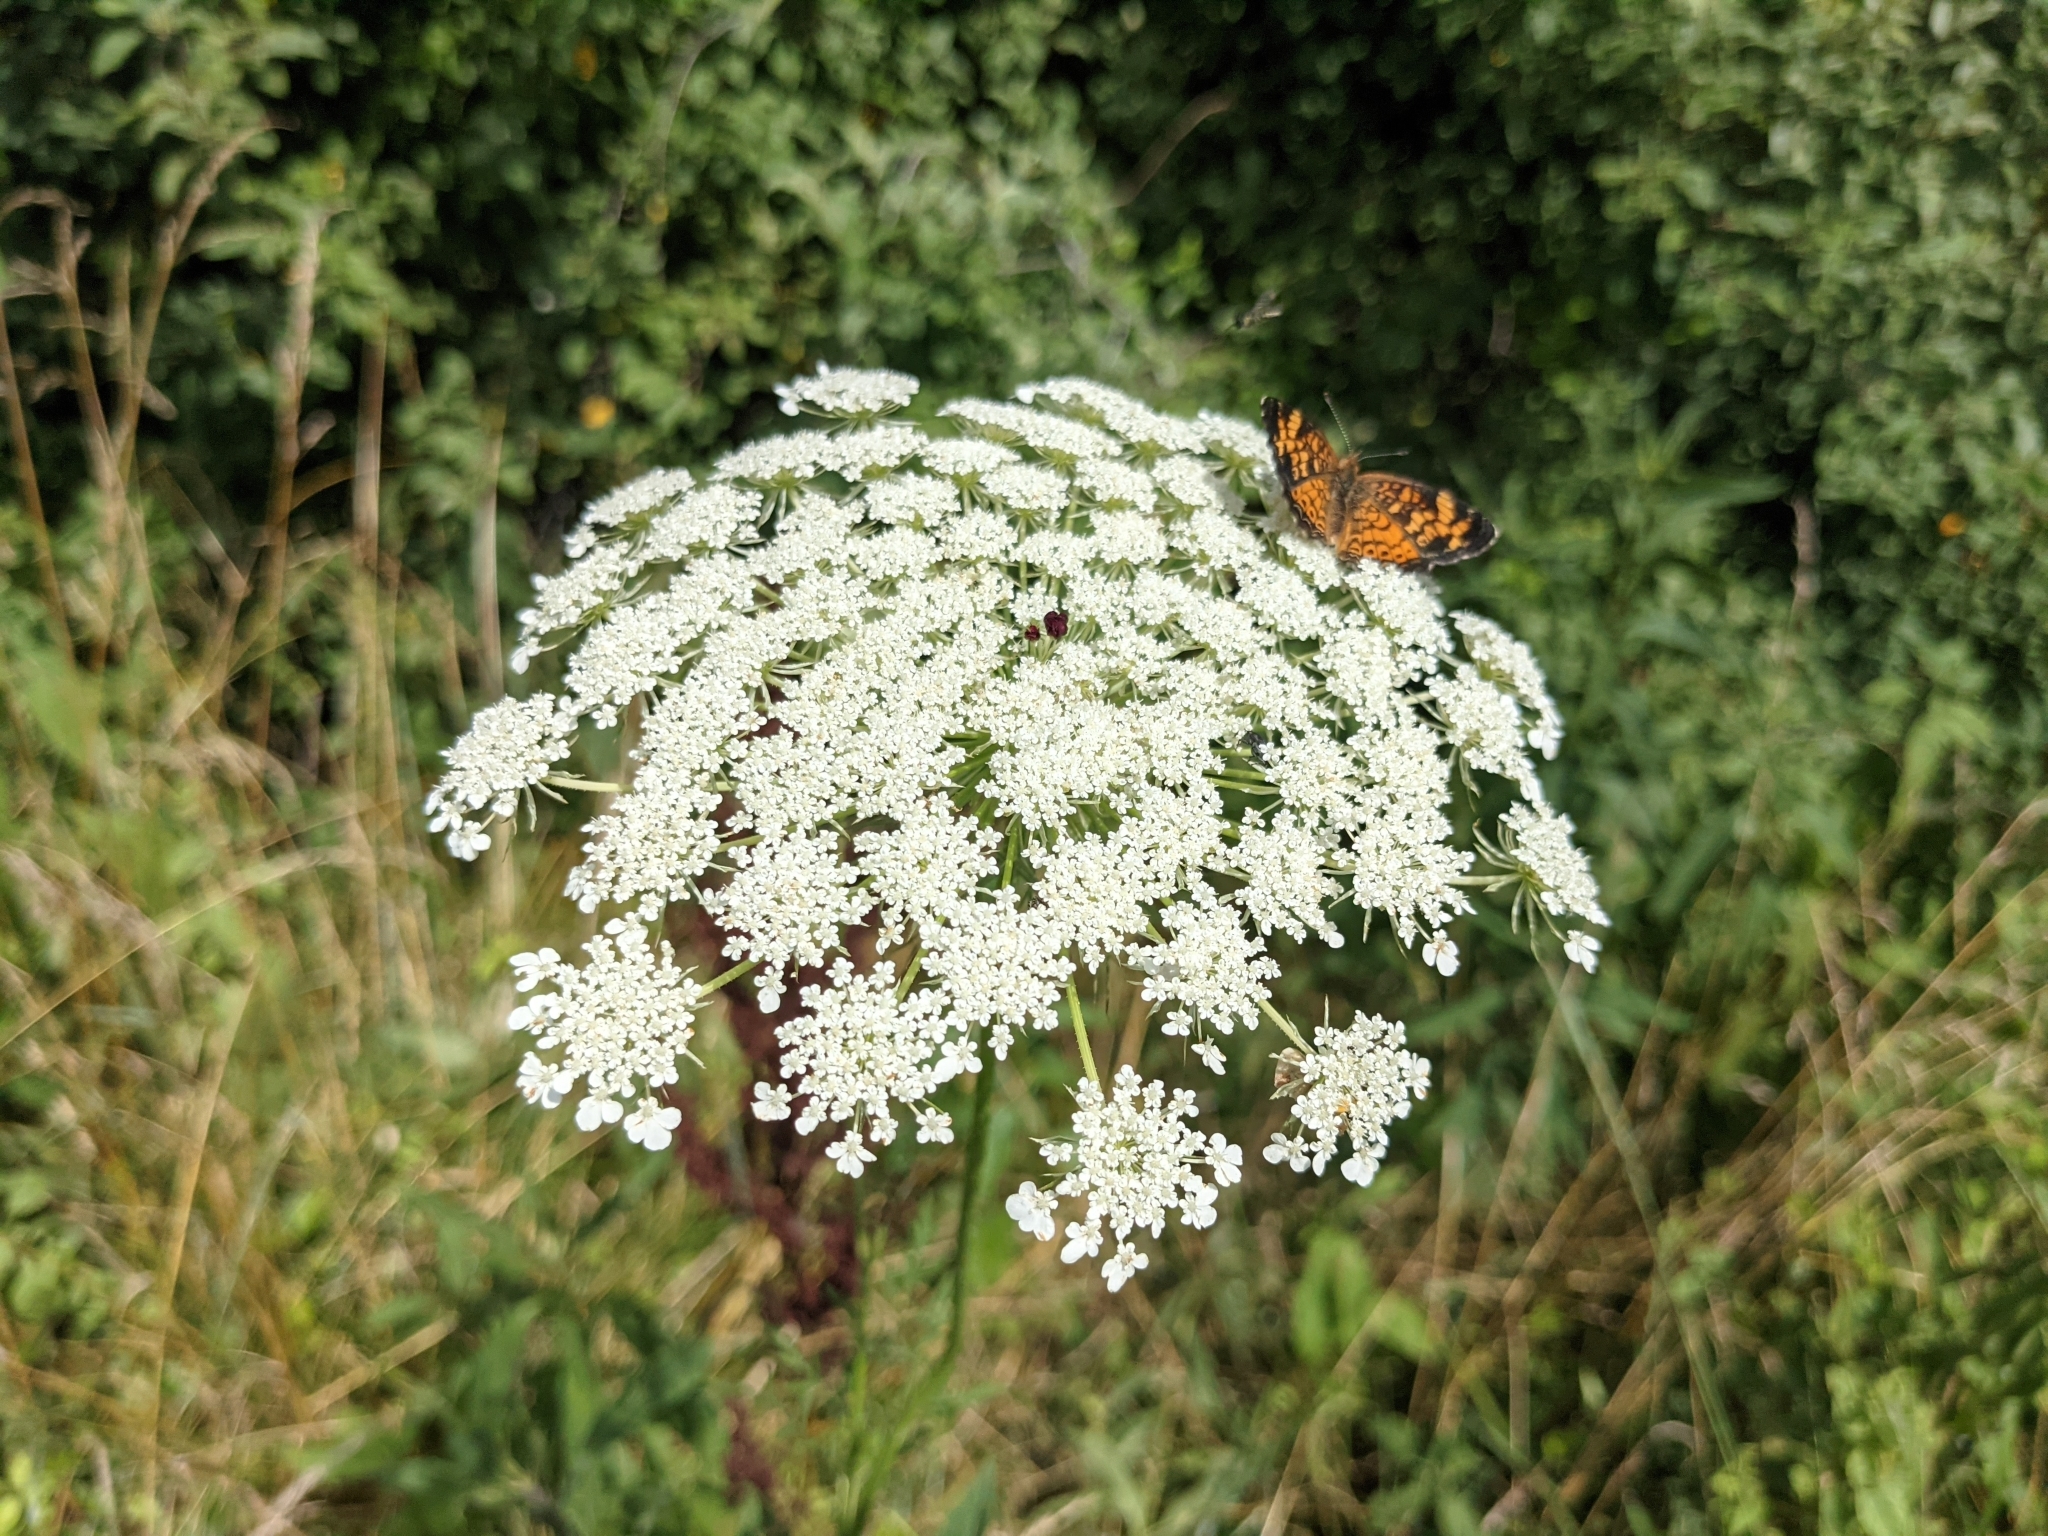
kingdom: Animalia
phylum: Arthropoda
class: Insecta
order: Lepidoptera
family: Nymphalidae
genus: Phyciodes
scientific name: Phyciodes tharos
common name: Pearl crescent
